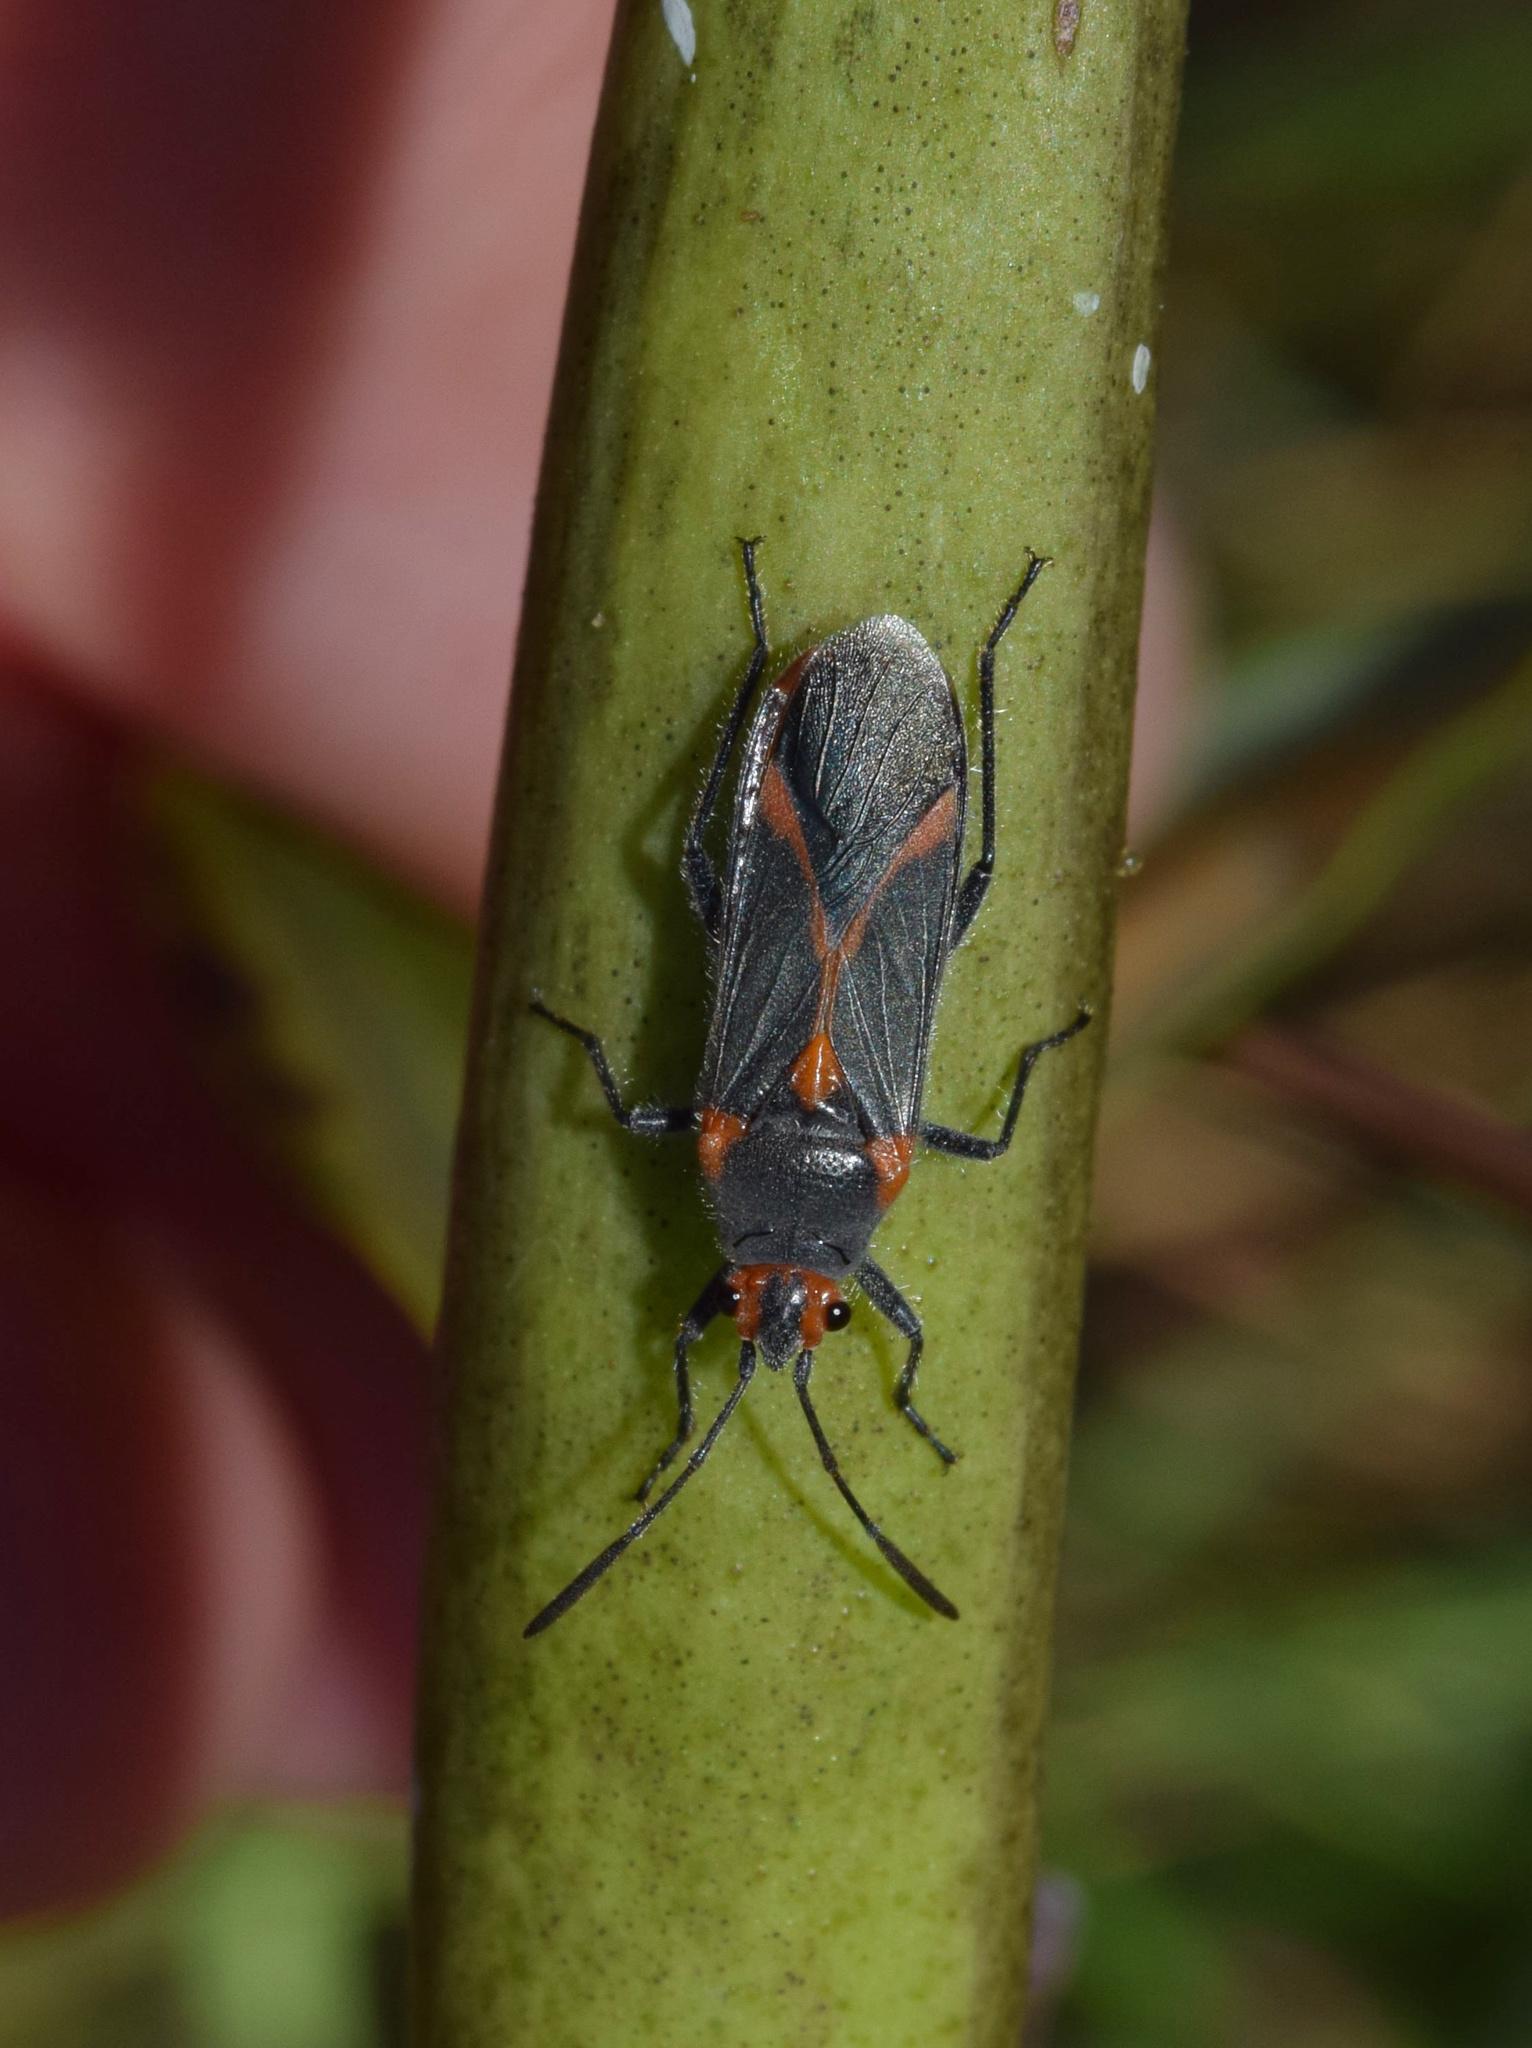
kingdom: Animalia
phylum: Arthropoda
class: Insecta
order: Hemiptera
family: Lygaeidae
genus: Caenocoris
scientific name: Caenocoris nerii
